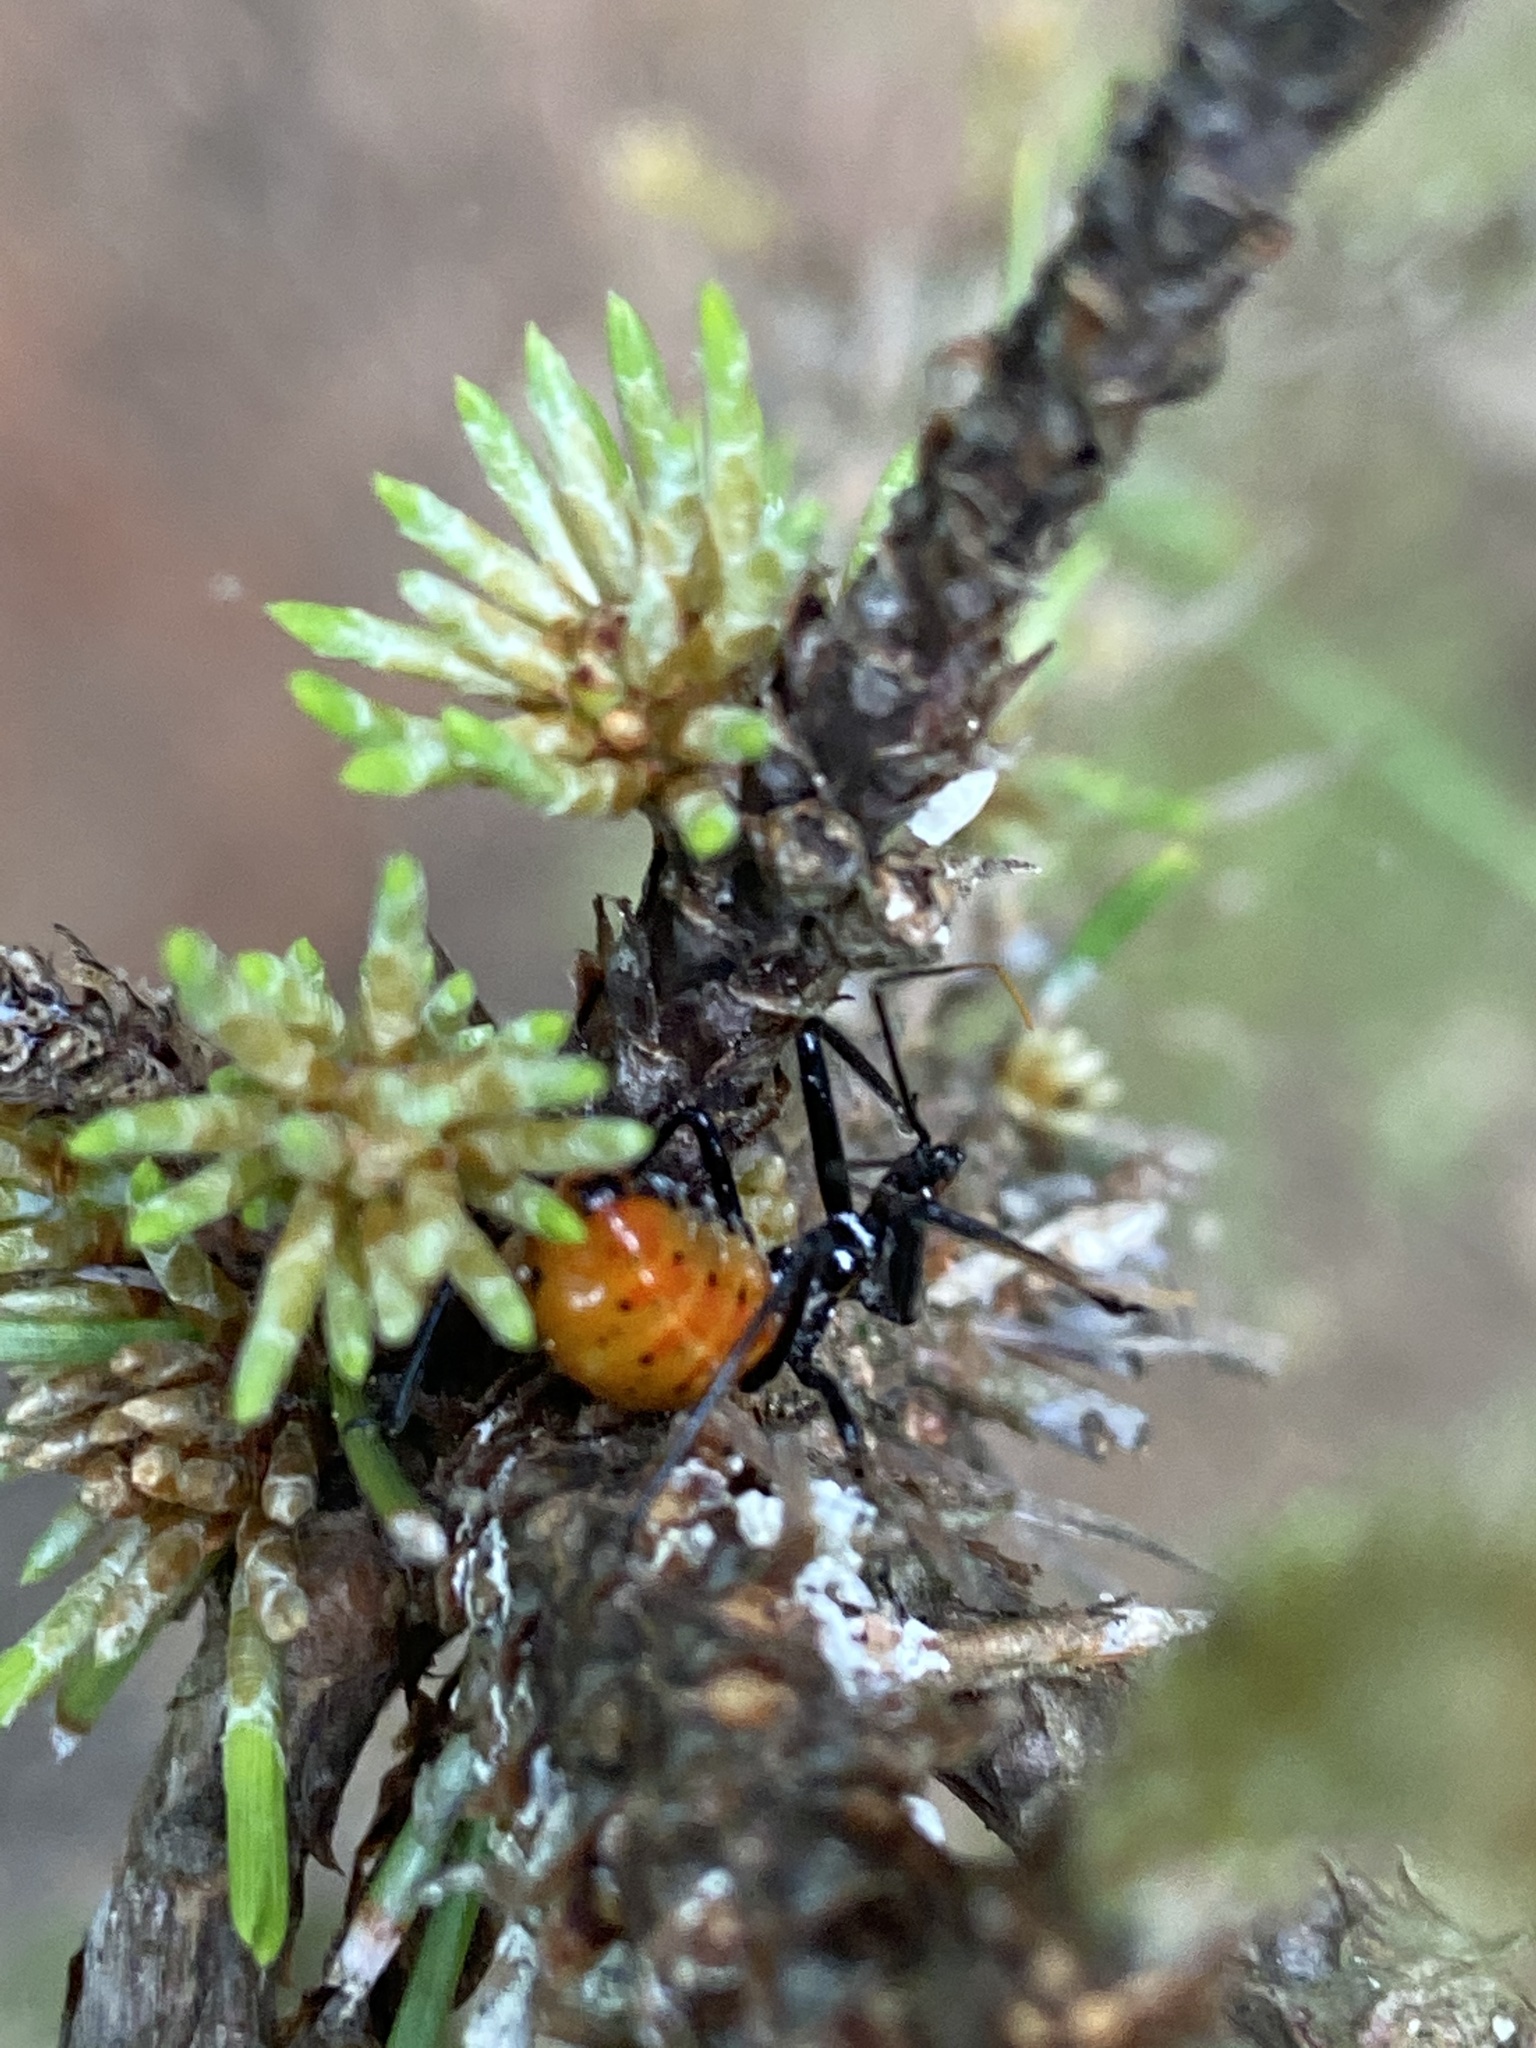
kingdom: Animalia
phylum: Arthropoda
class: Insecta
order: Hemiptera
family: Reduviidae
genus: Arilus
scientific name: Arilus cristatus
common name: North american wheel bug
